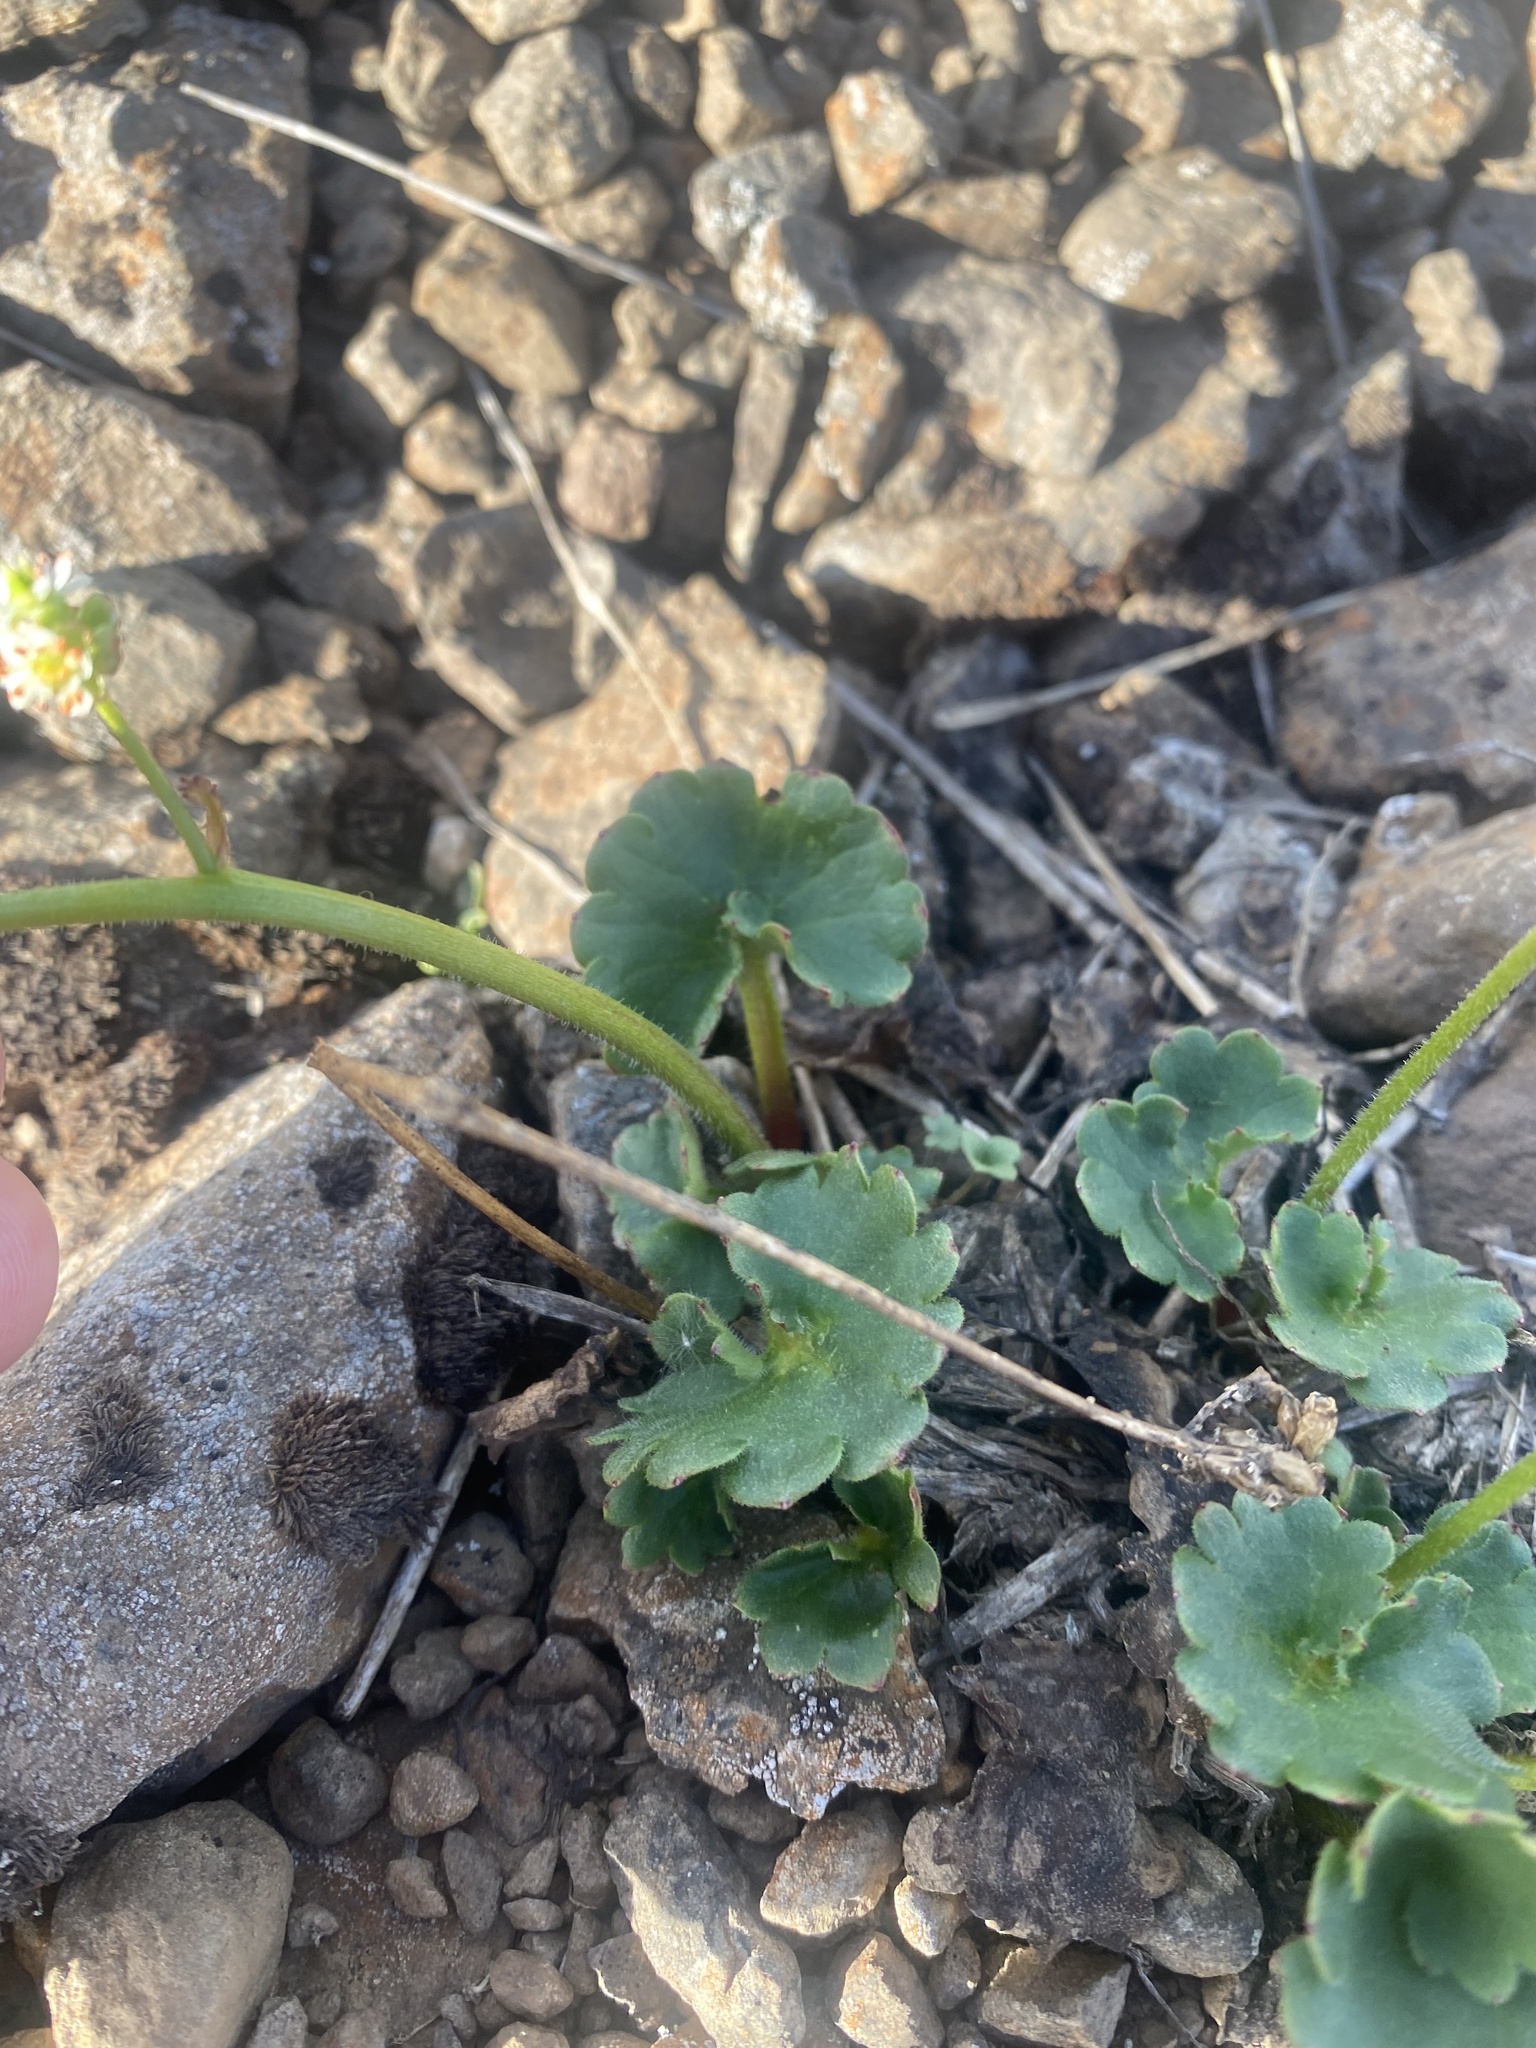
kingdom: Plantae
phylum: Tracheophyta
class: Magnoliopsida
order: Saxifragales
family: Saxifragaceae
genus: Micranthes
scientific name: Micranthes nelsoniana
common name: Nelson's saxifrage
